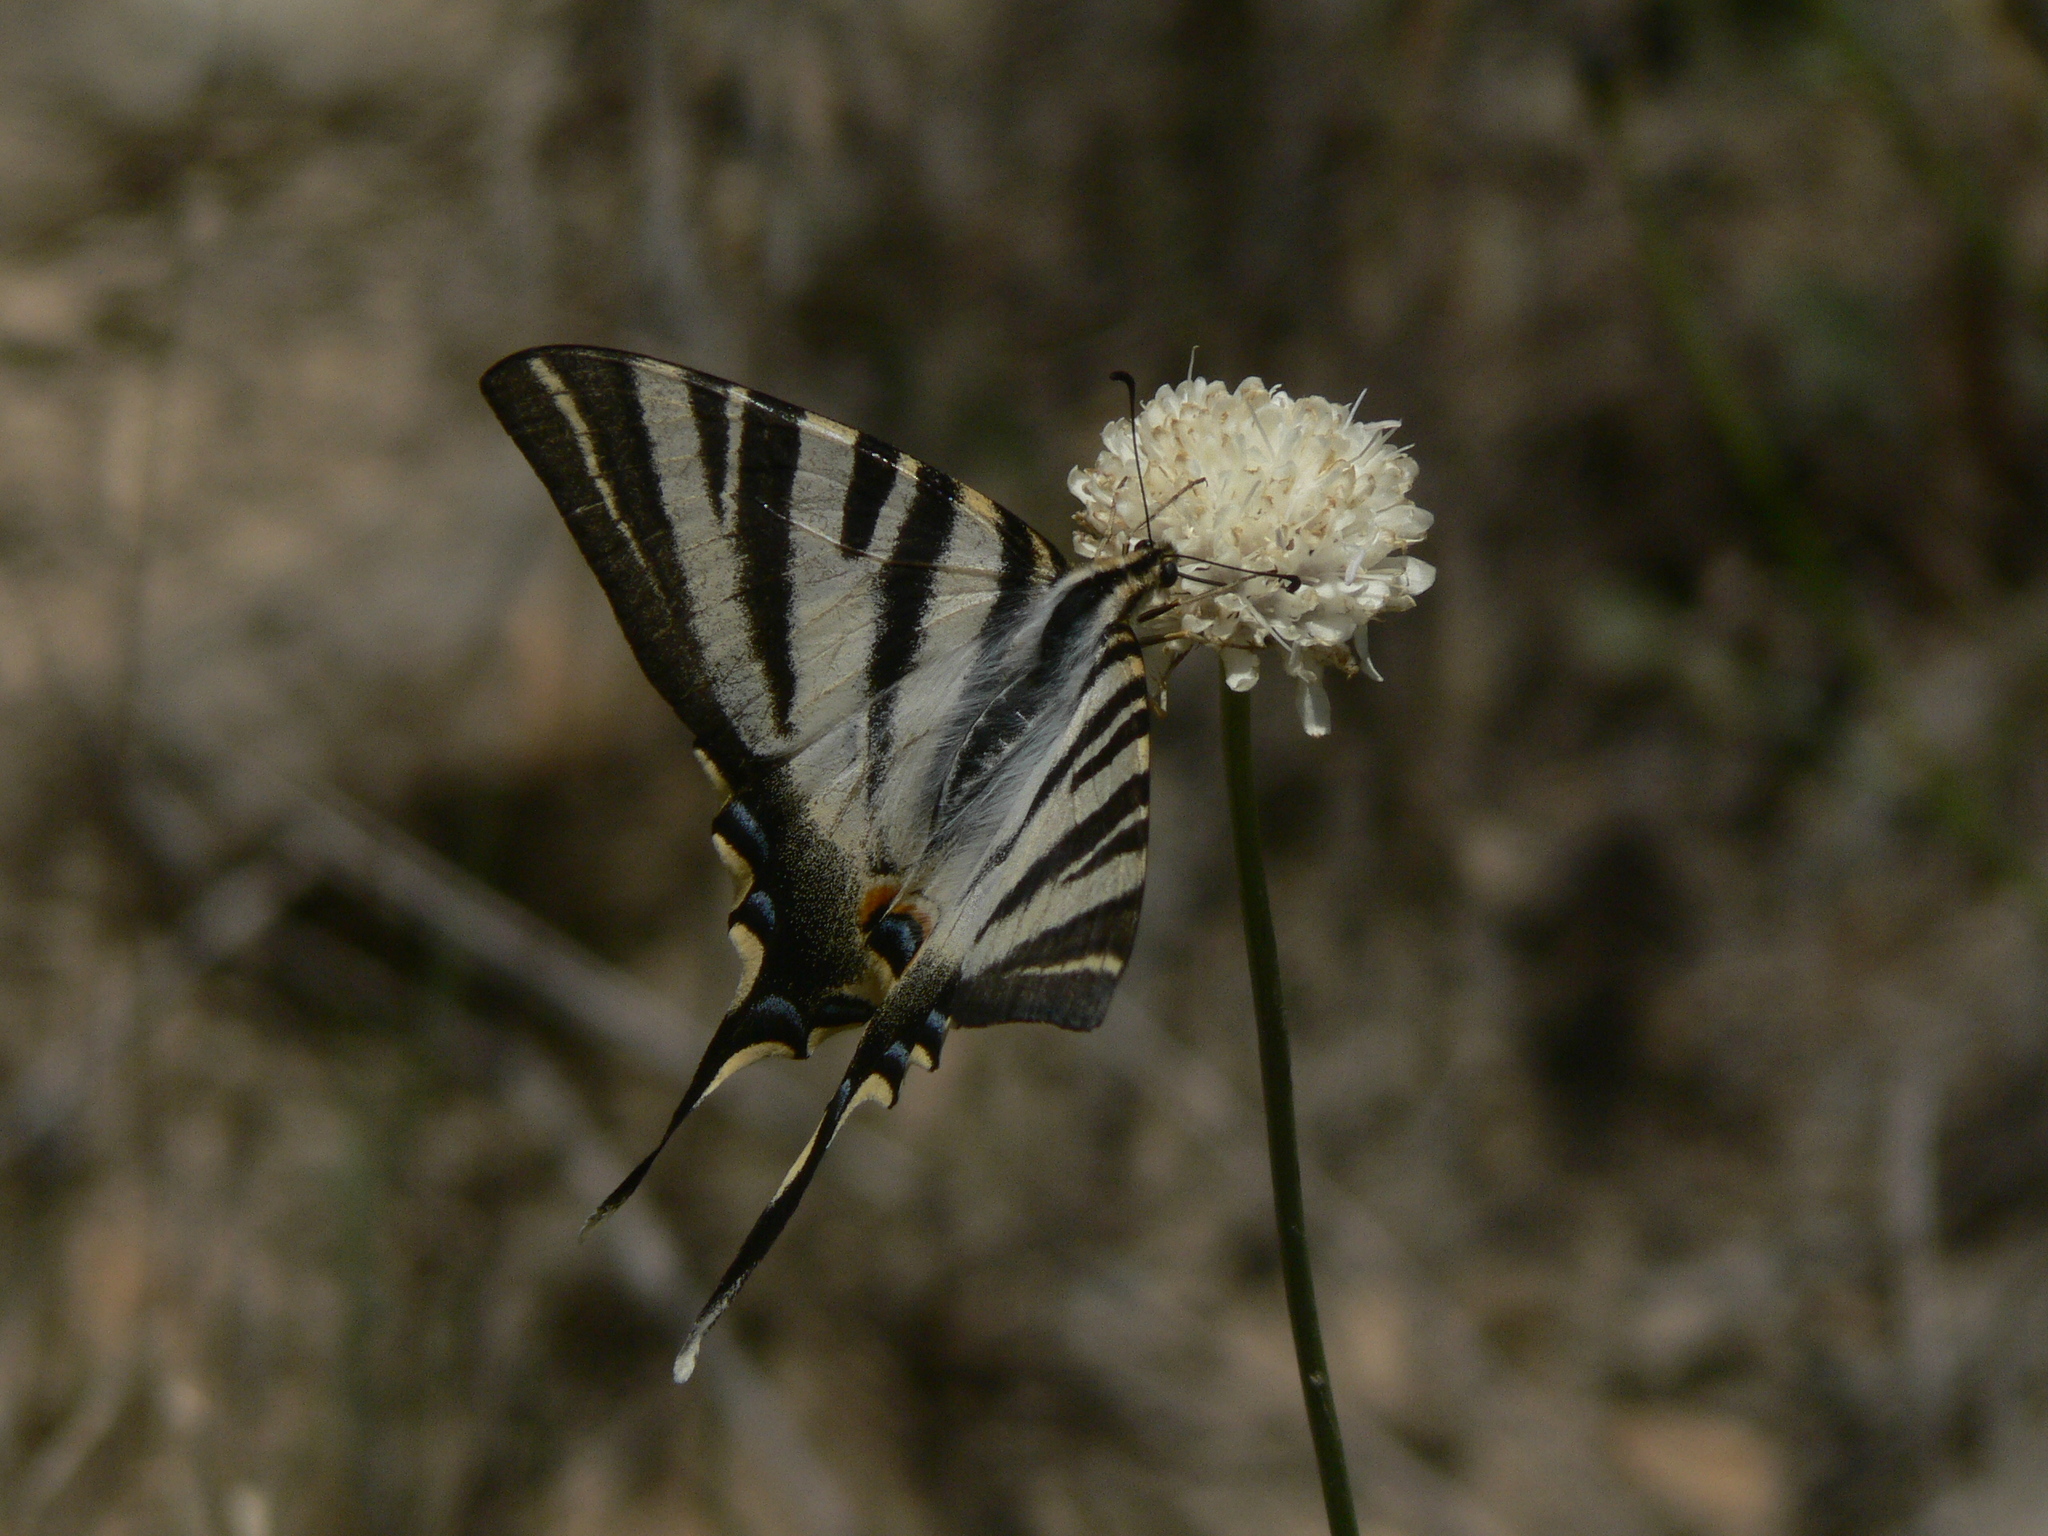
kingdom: Animalia
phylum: Arthropoda
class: Insecta
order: Lepidoptera
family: Papilionidae
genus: Iphiclides
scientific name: Iphiclides feisthamelii
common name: Iberian scarce swallowtail
